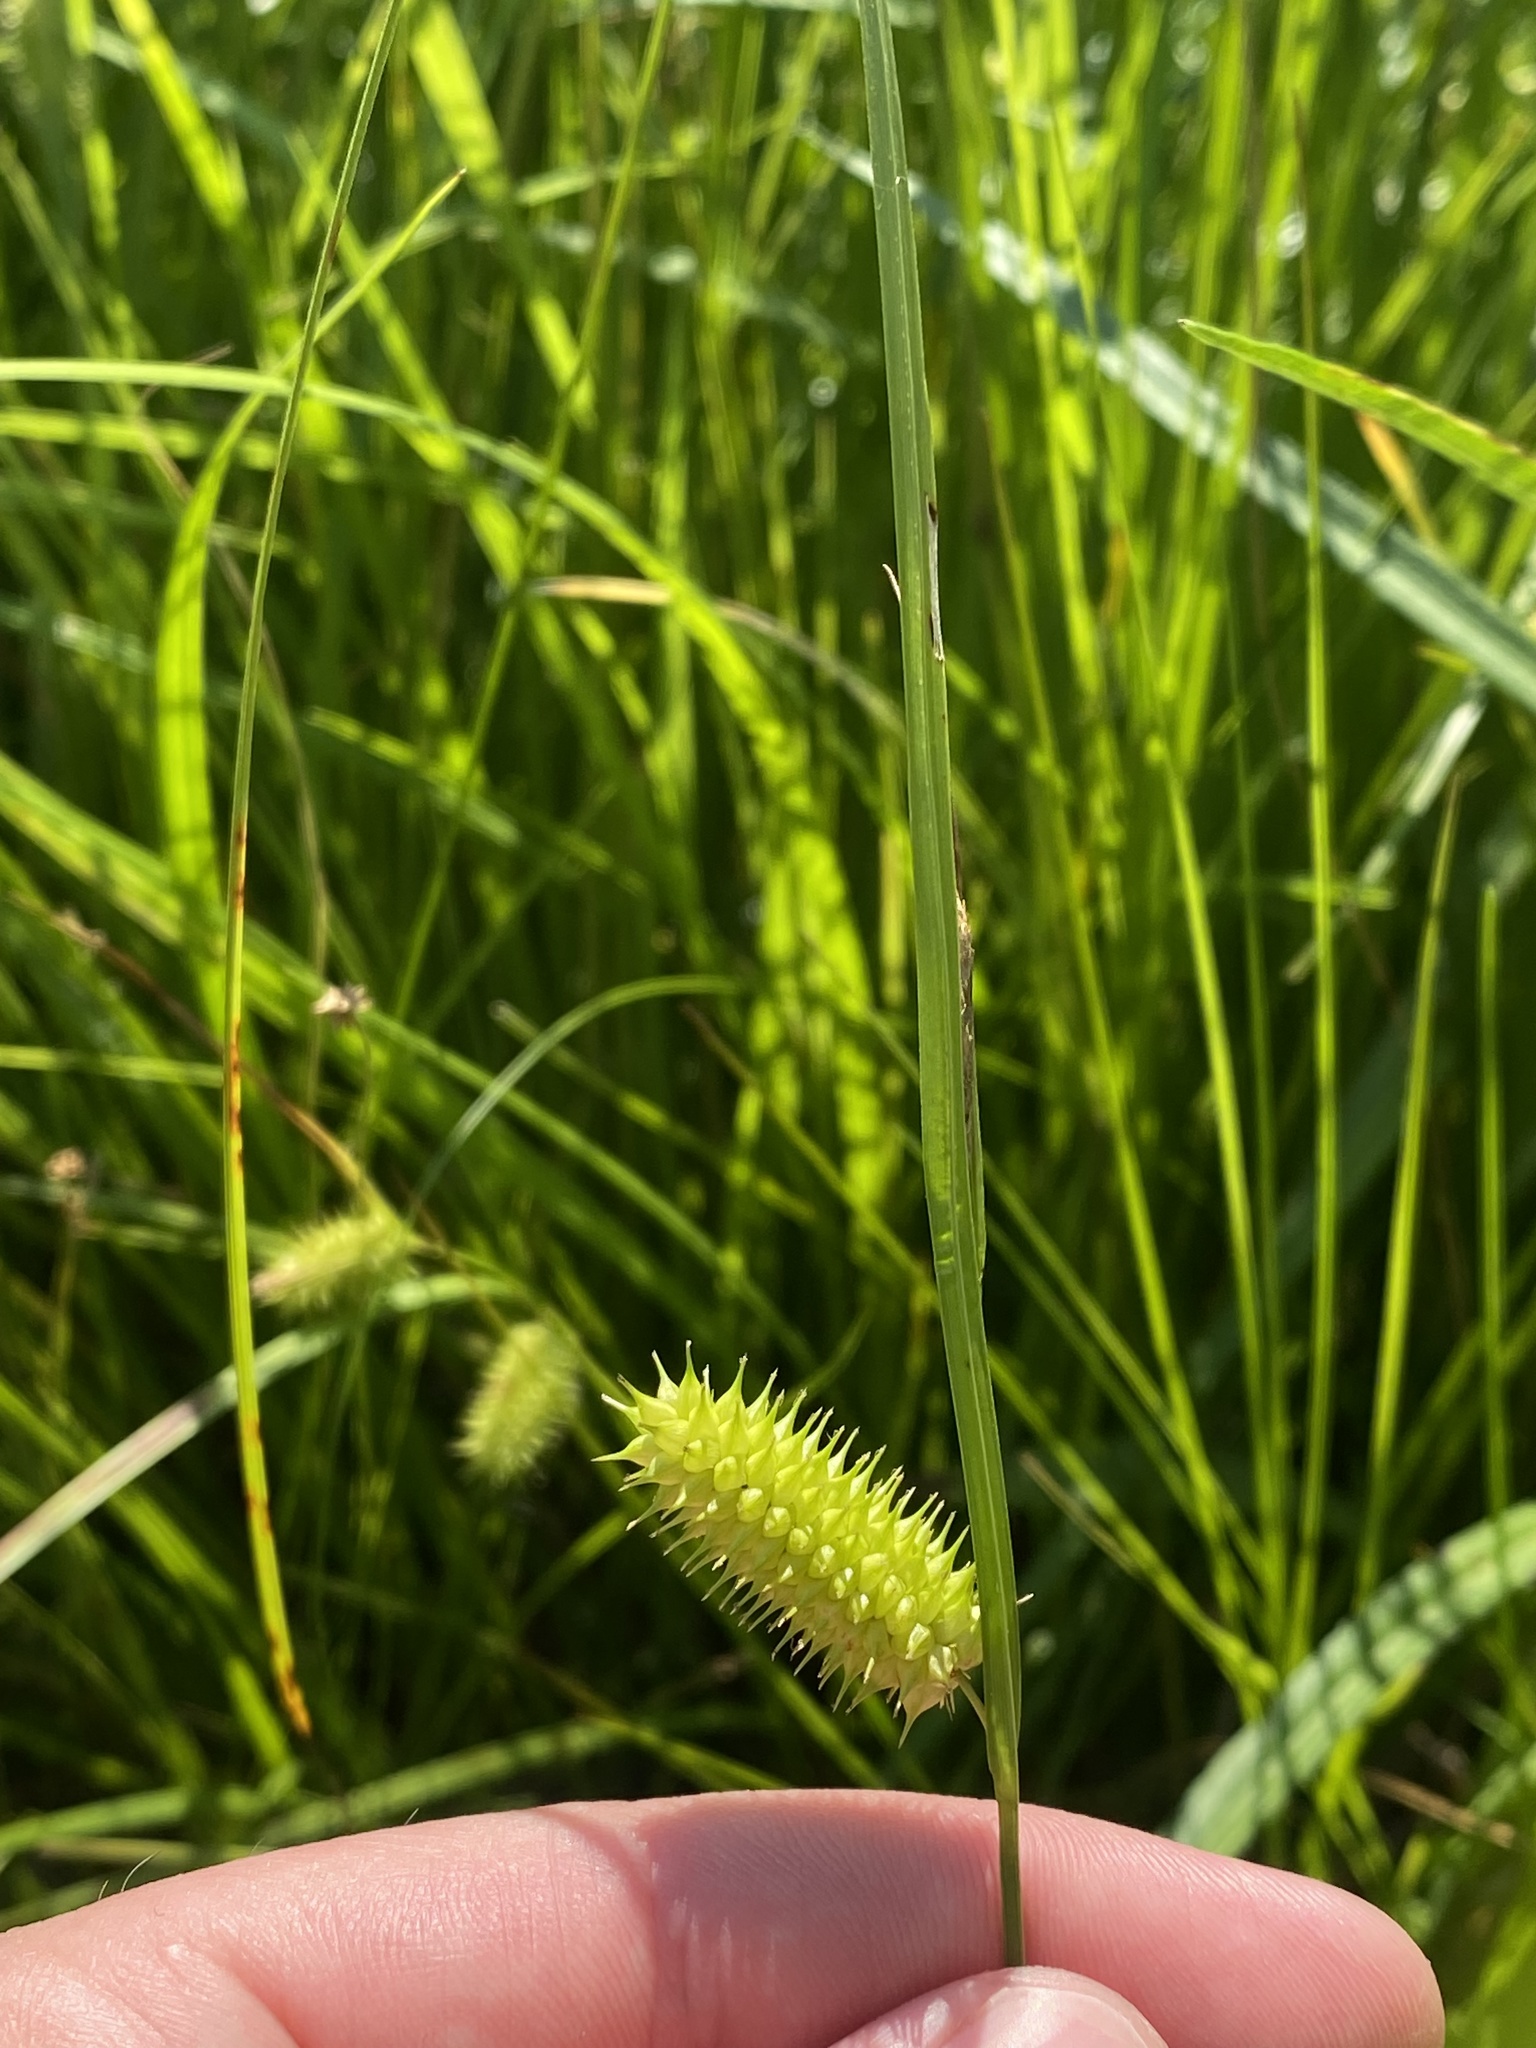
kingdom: Plantae
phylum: Tracheophyta
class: Liliopsida
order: Poales
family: Cyperaceae
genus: Carex
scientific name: Carex hystericina
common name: Bottlebrush sedge
